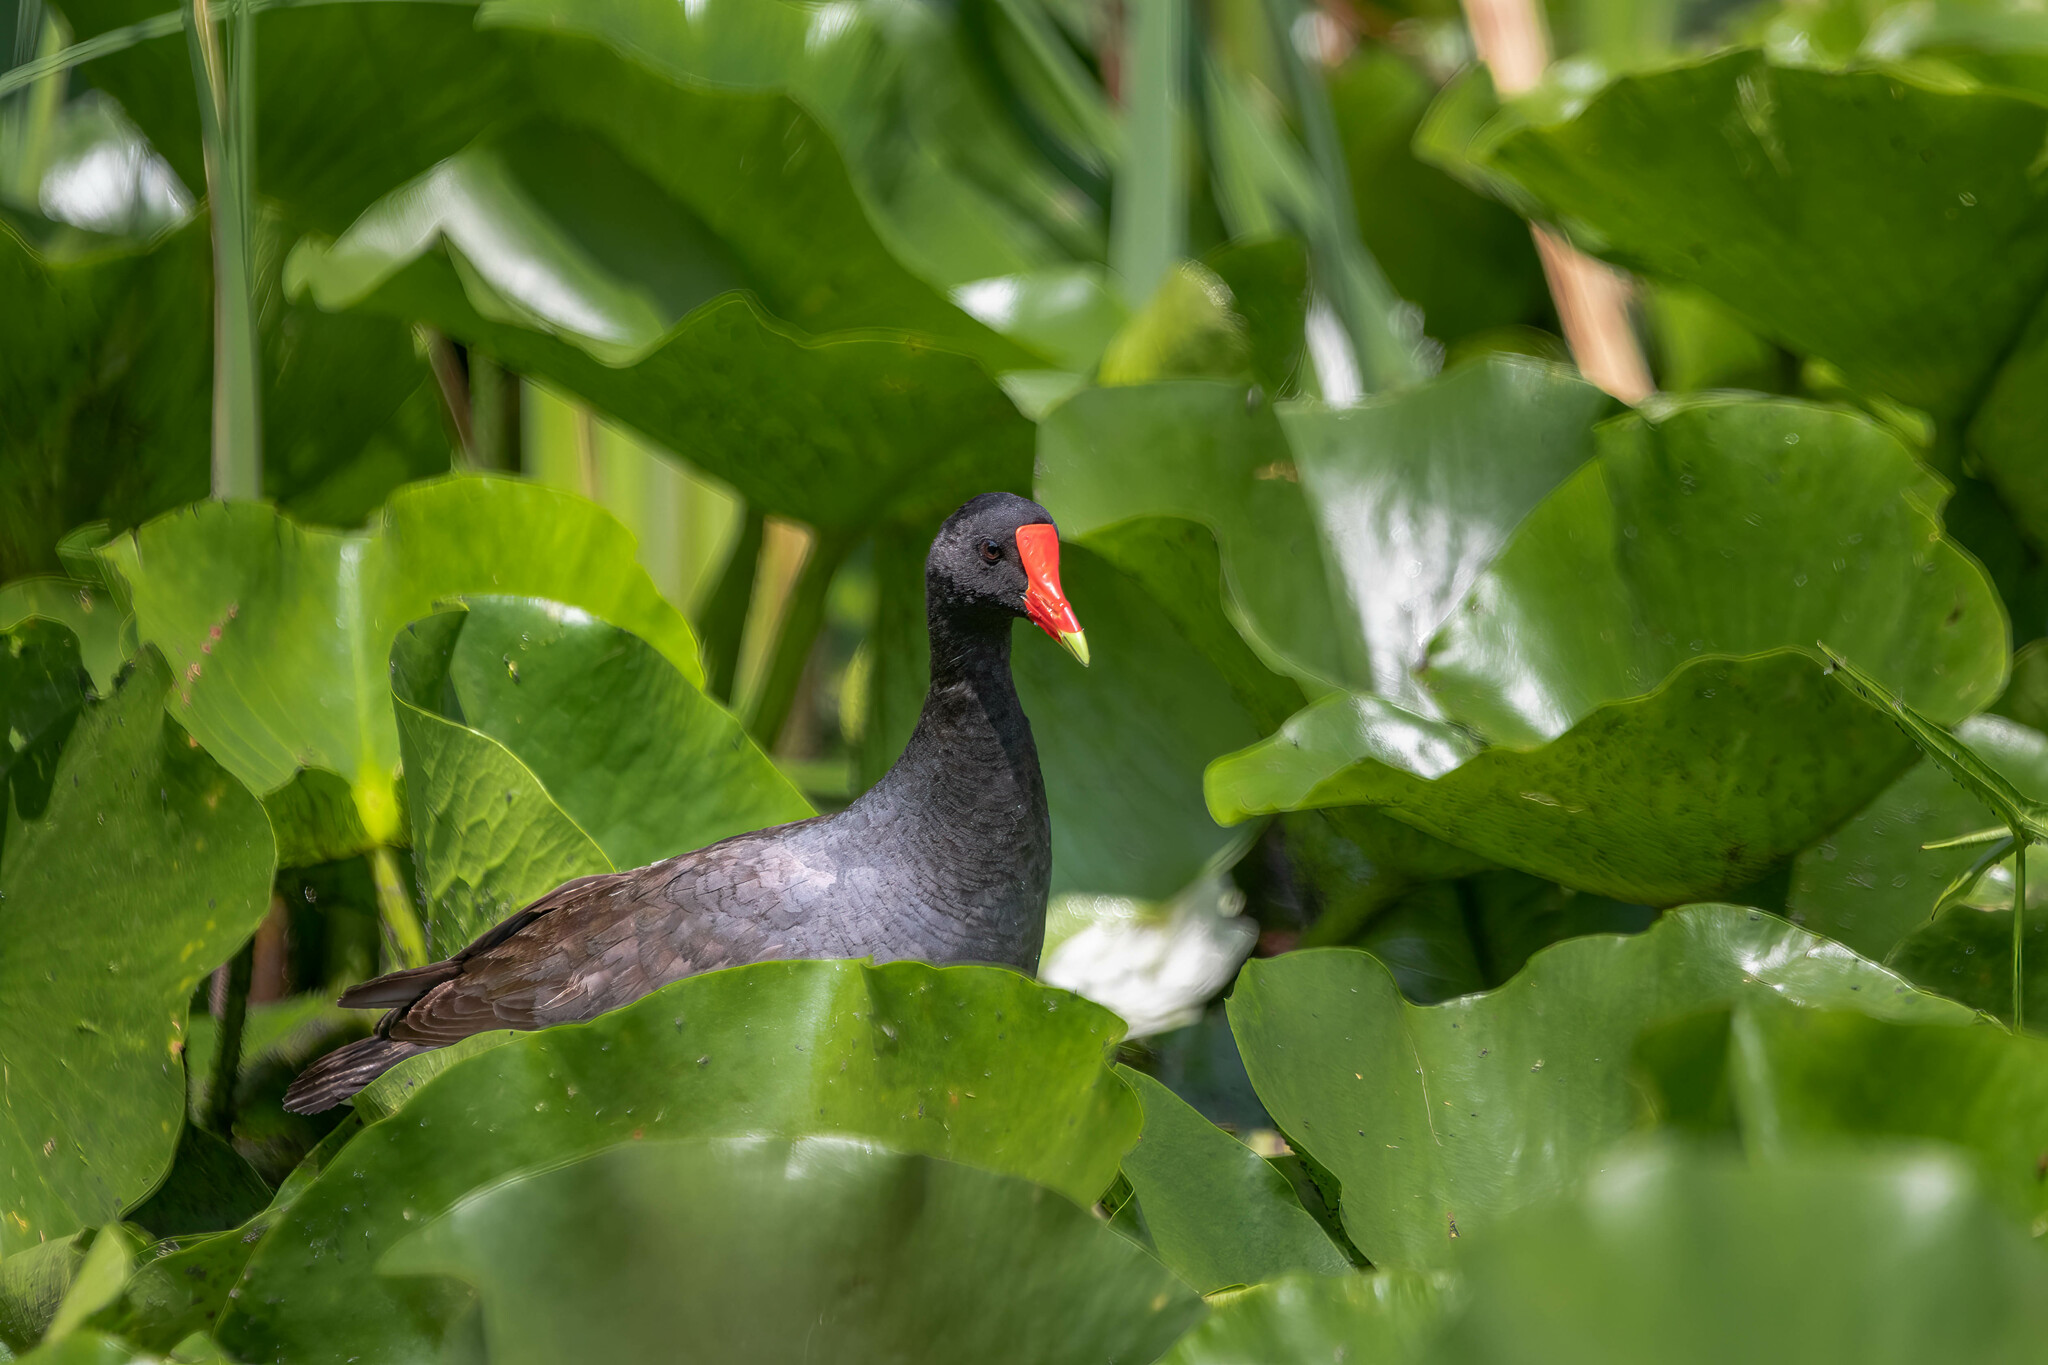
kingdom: Animalia
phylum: Chordata
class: Aves
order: Gruiformes
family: Rallidae
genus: Gallinula
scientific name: Gallinula chloropus
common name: Common moorhen
